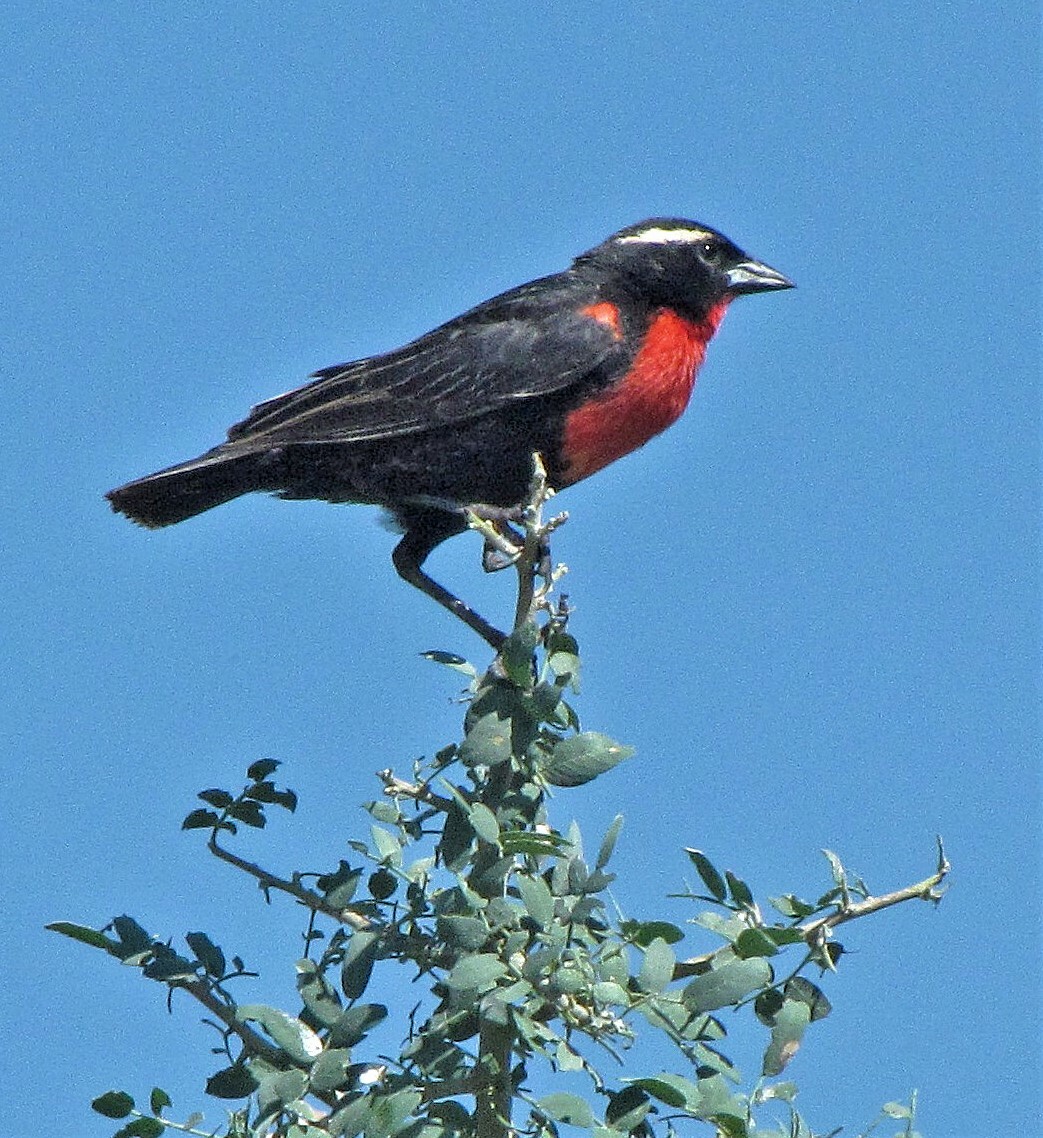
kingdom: Animalia
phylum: Chordata
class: Aves
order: Passeriformes
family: Icteridae
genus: Sturnella
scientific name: Sturnella superciliaris
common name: White-browed blackbird
